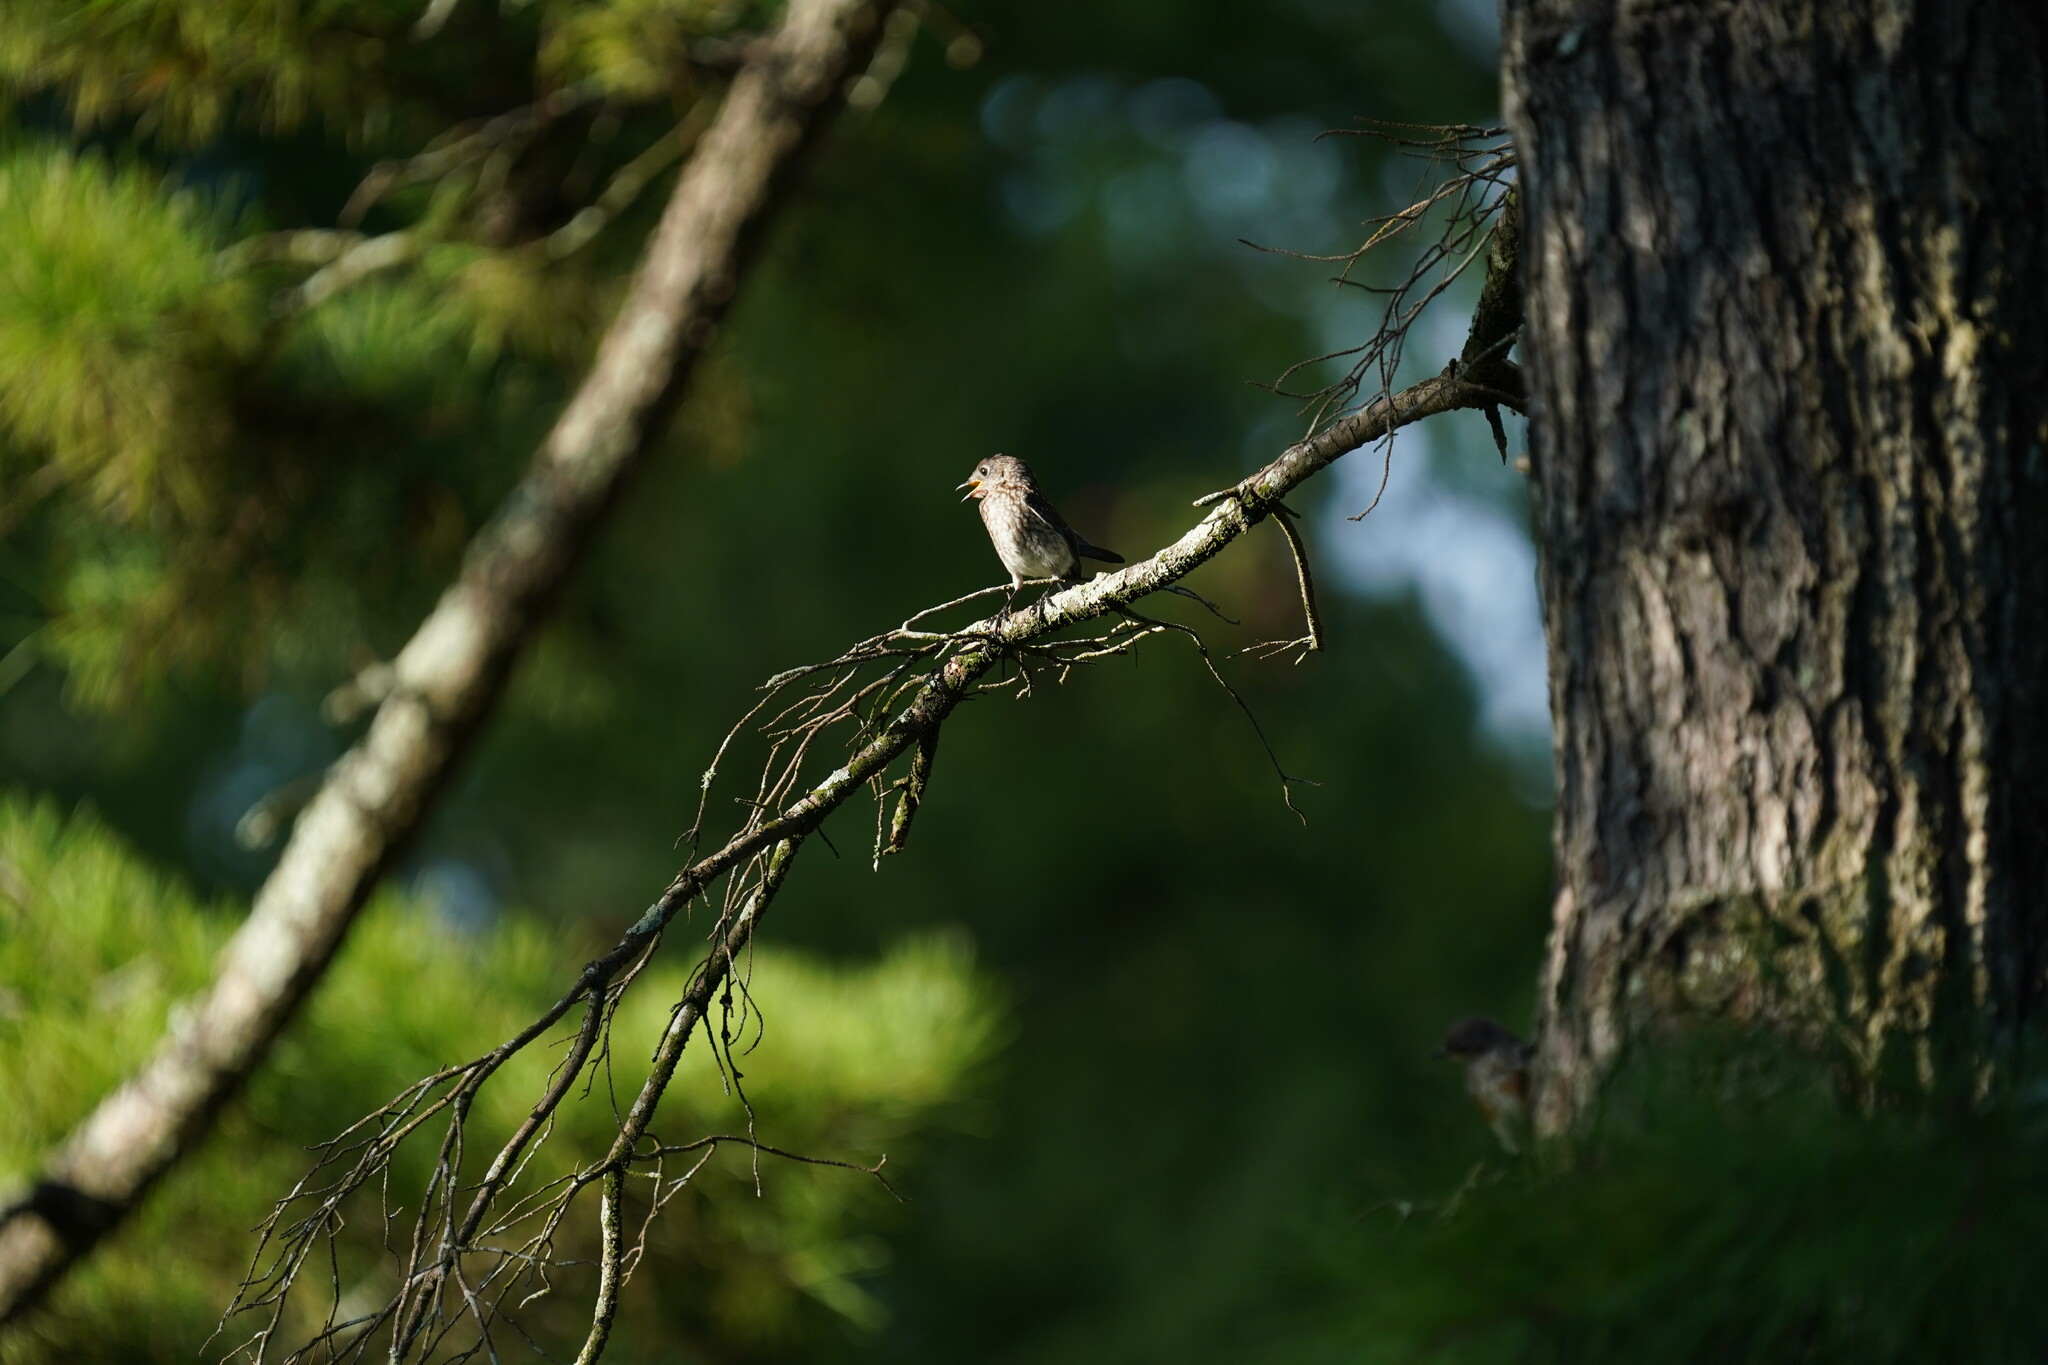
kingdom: Animalia
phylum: Chordata
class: Aves
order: Passeriformes
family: Turdidae
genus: Sialia
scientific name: Sialia sialis
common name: Eastern bluebird
